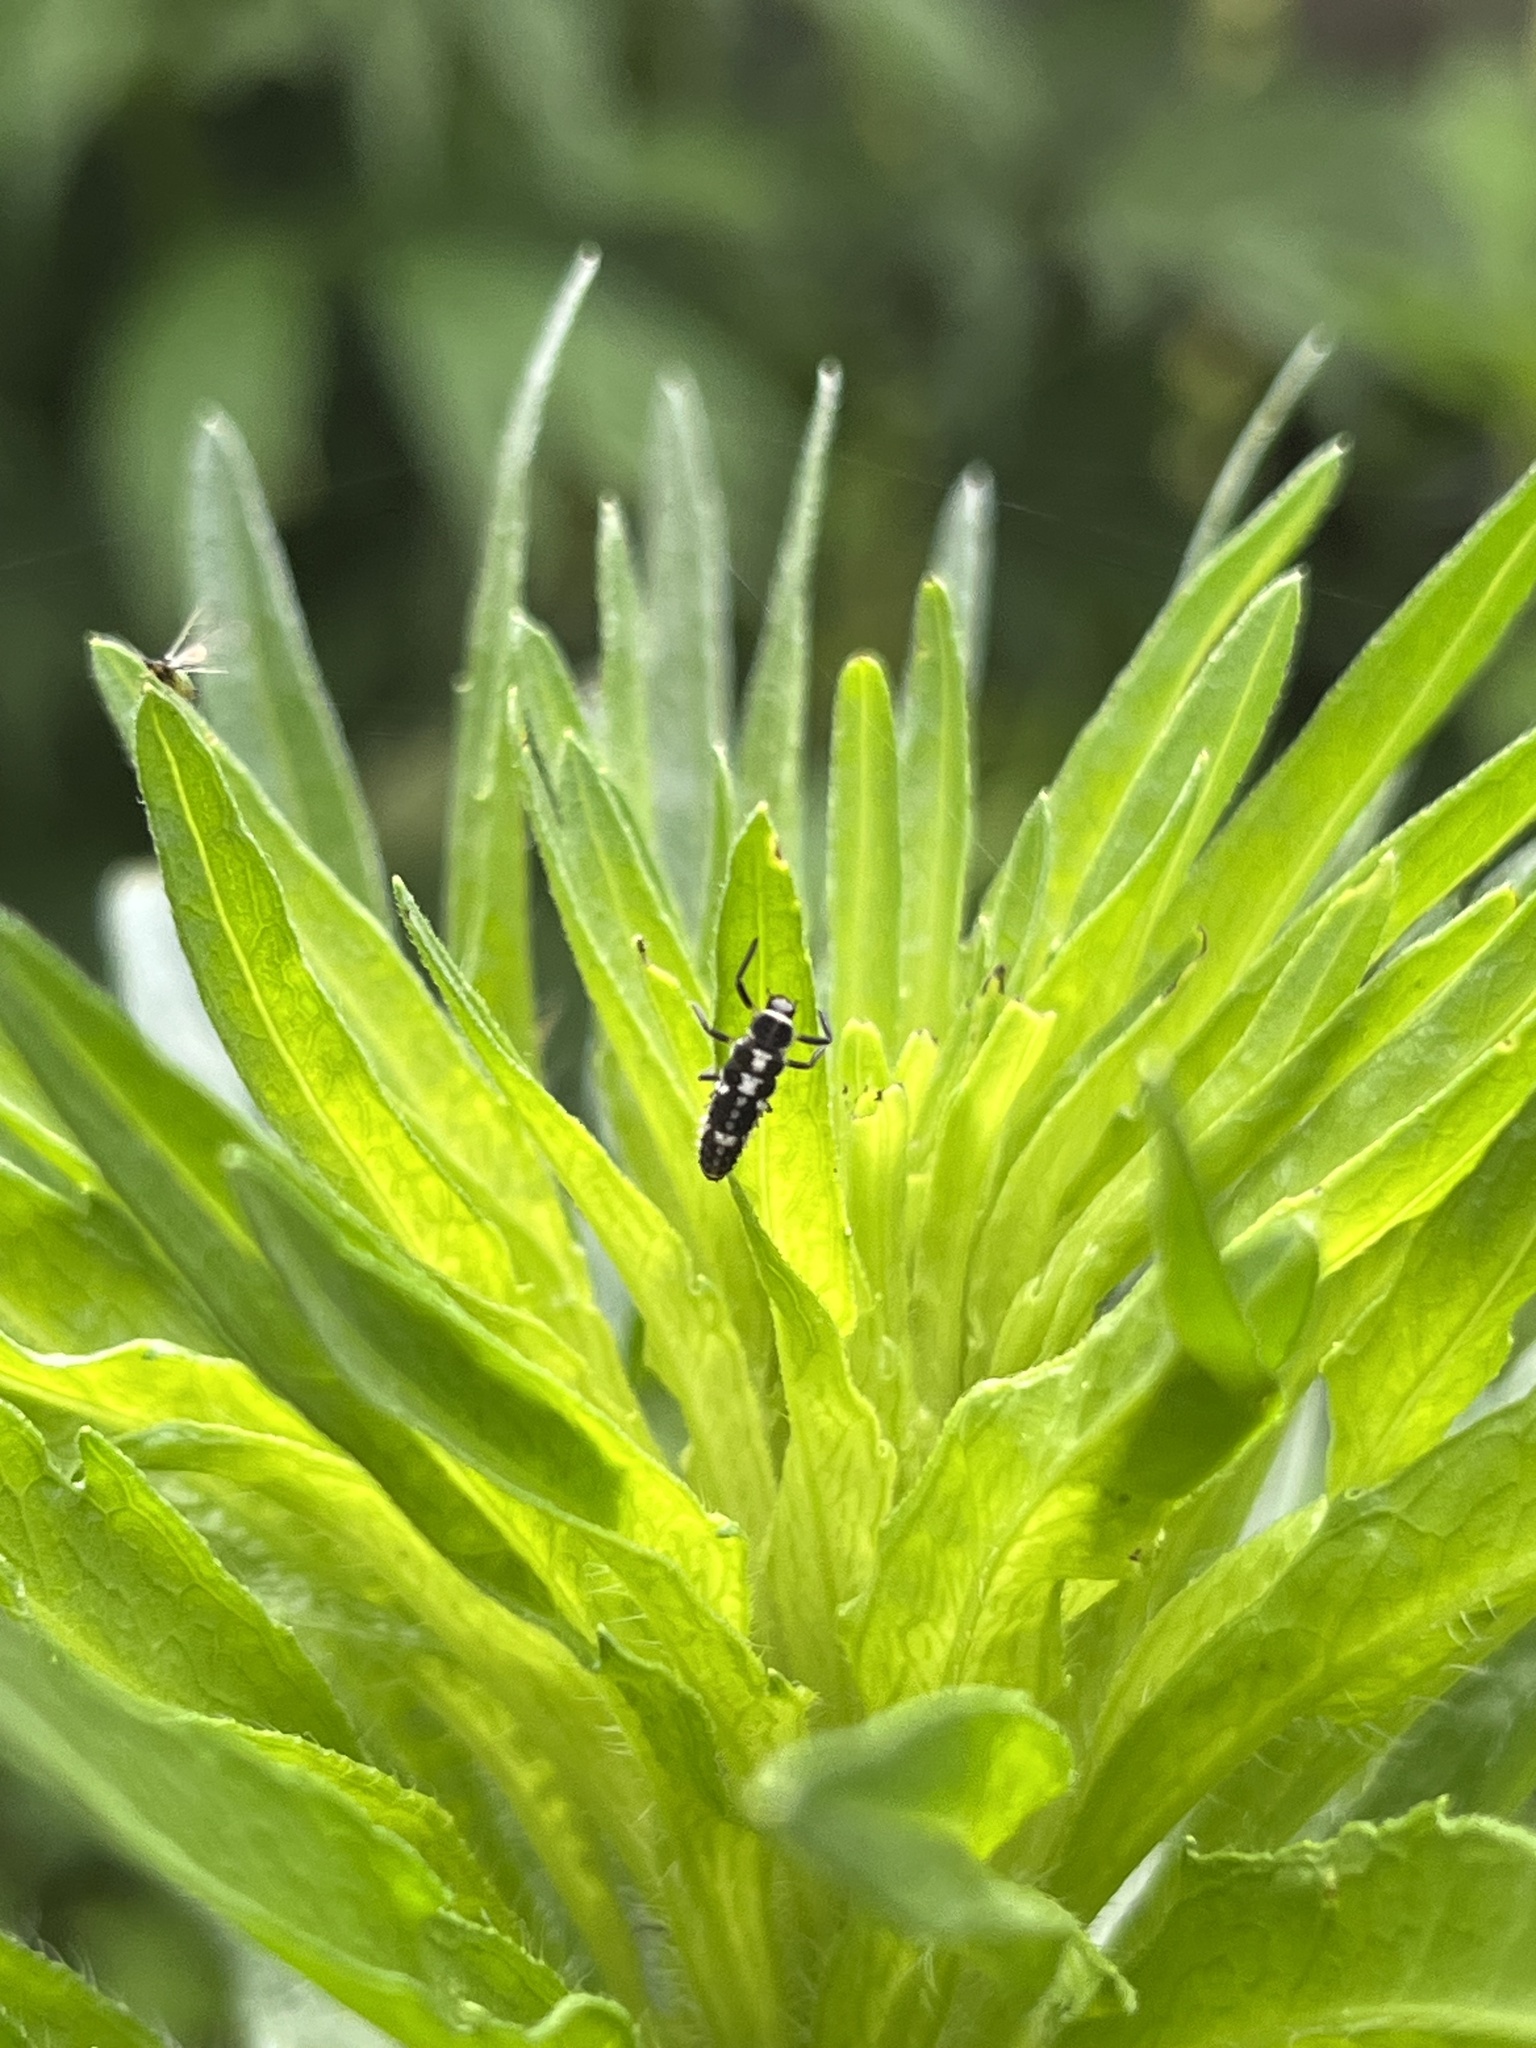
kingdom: Animalia
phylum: Arthropoda
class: Insecta
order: Coleoptera
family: Coccinellidae
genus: Propylaea
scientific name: Propylaea quatuordecimpunctata
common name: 14-spotted ladybird beetle
